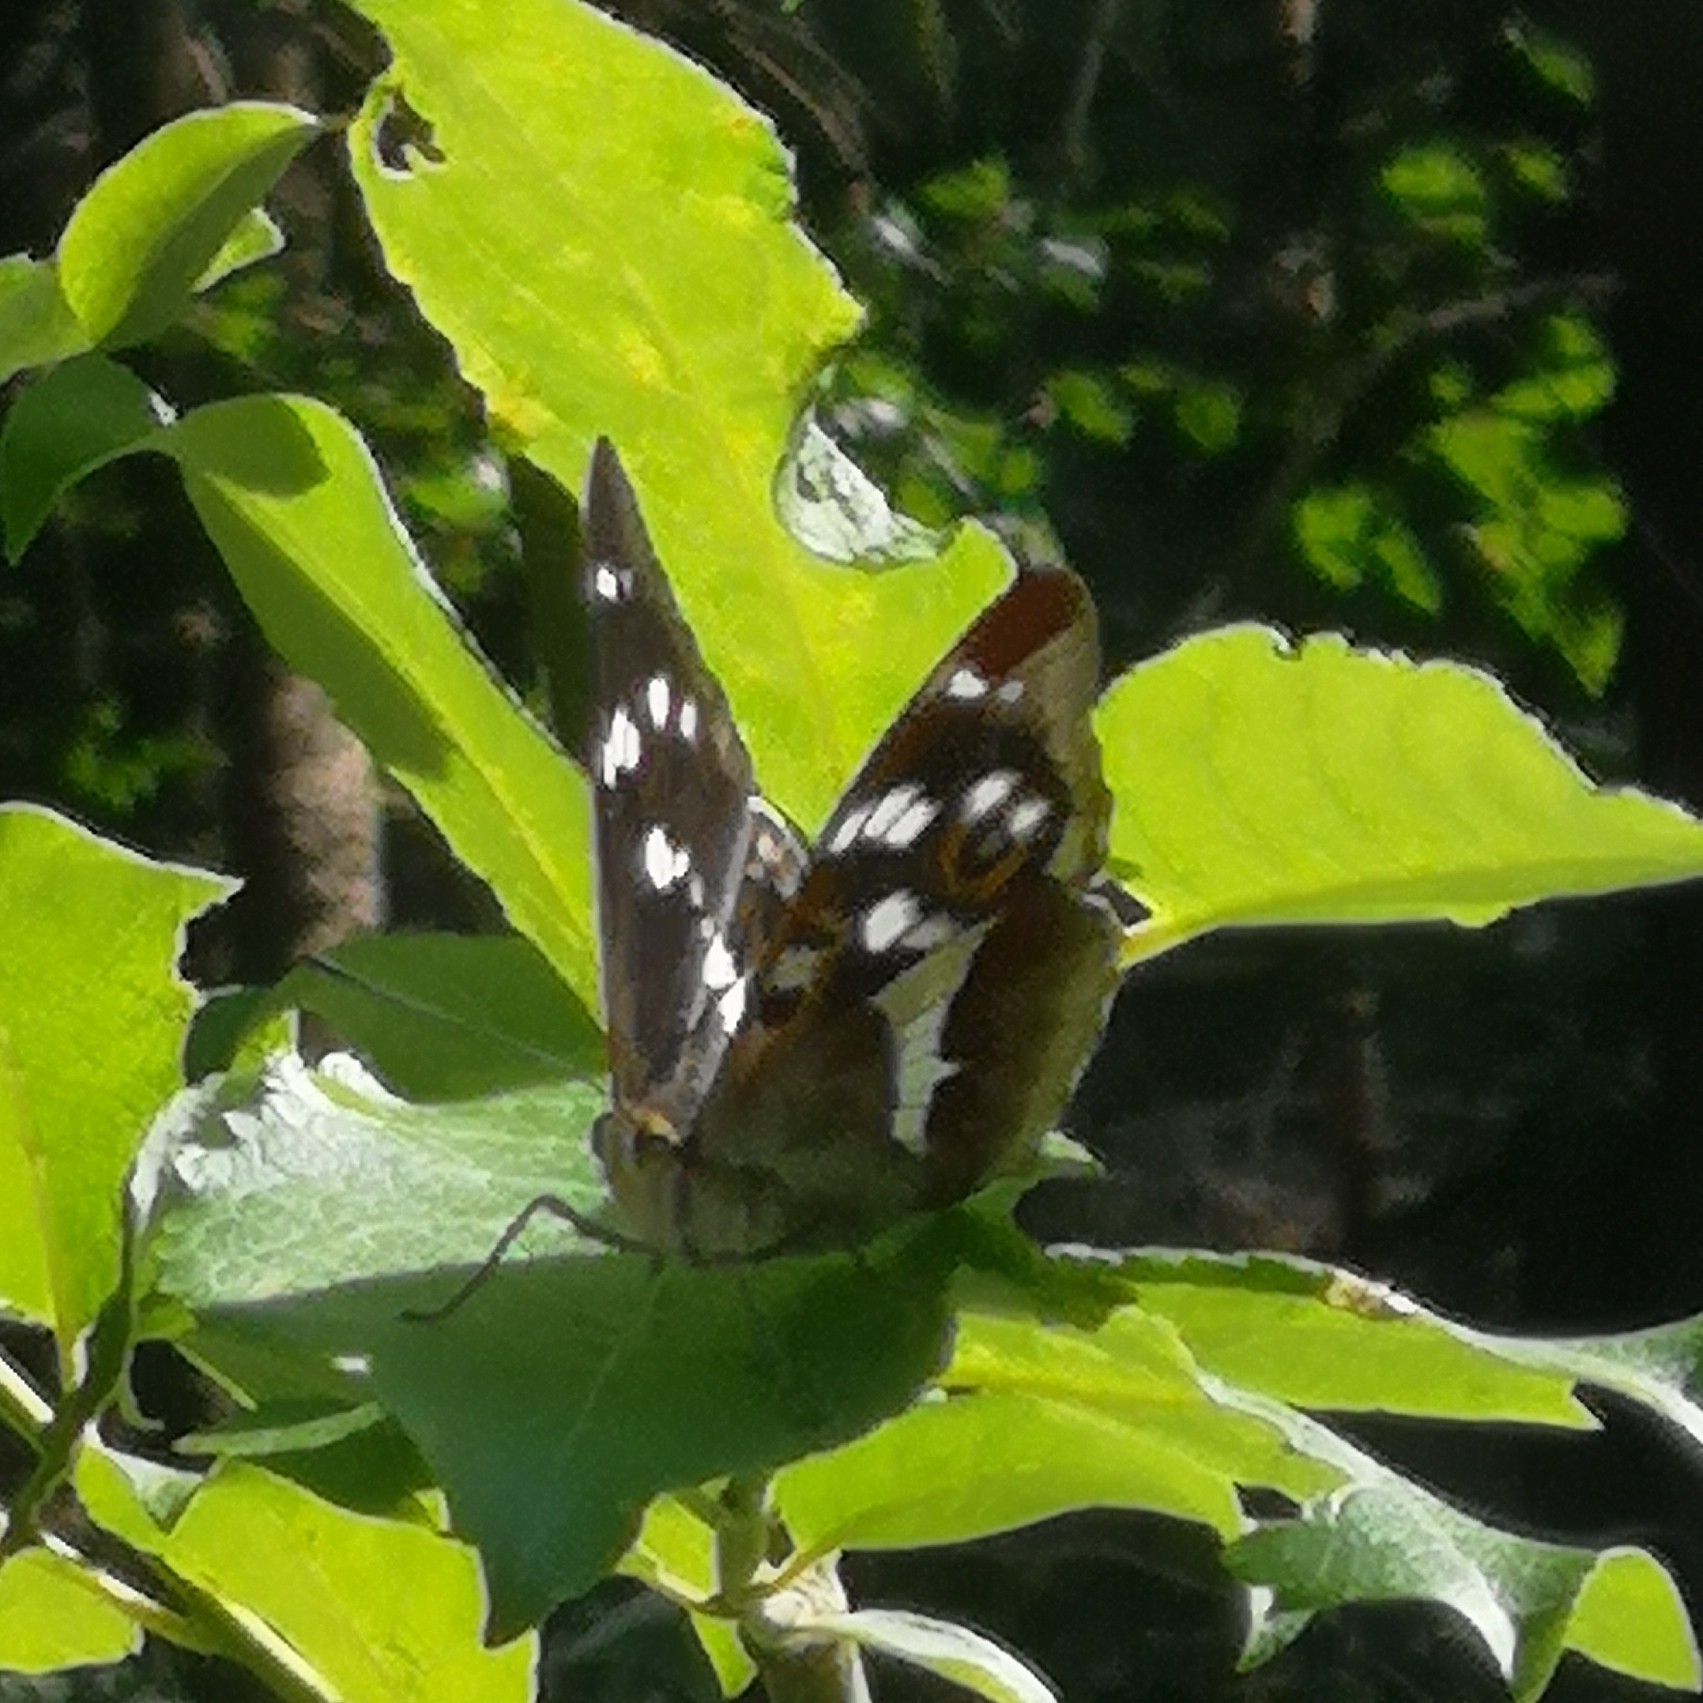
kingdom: Animalia
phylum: Arthropoda
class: Insecta
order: Lepidoptera
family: Nymphalidae
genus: Apatura
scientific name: Apatura iris
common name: Purple emperor
